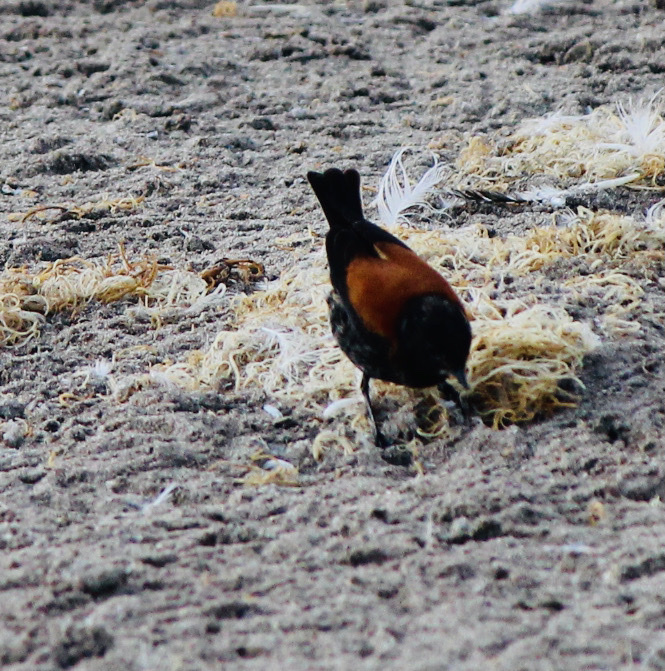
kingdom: Animalia
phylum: Chordata
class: Aves
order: Passeriformes
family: Tyrannidae
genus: Lessonia
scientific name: Lessonia rufa
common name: Austral negrito
